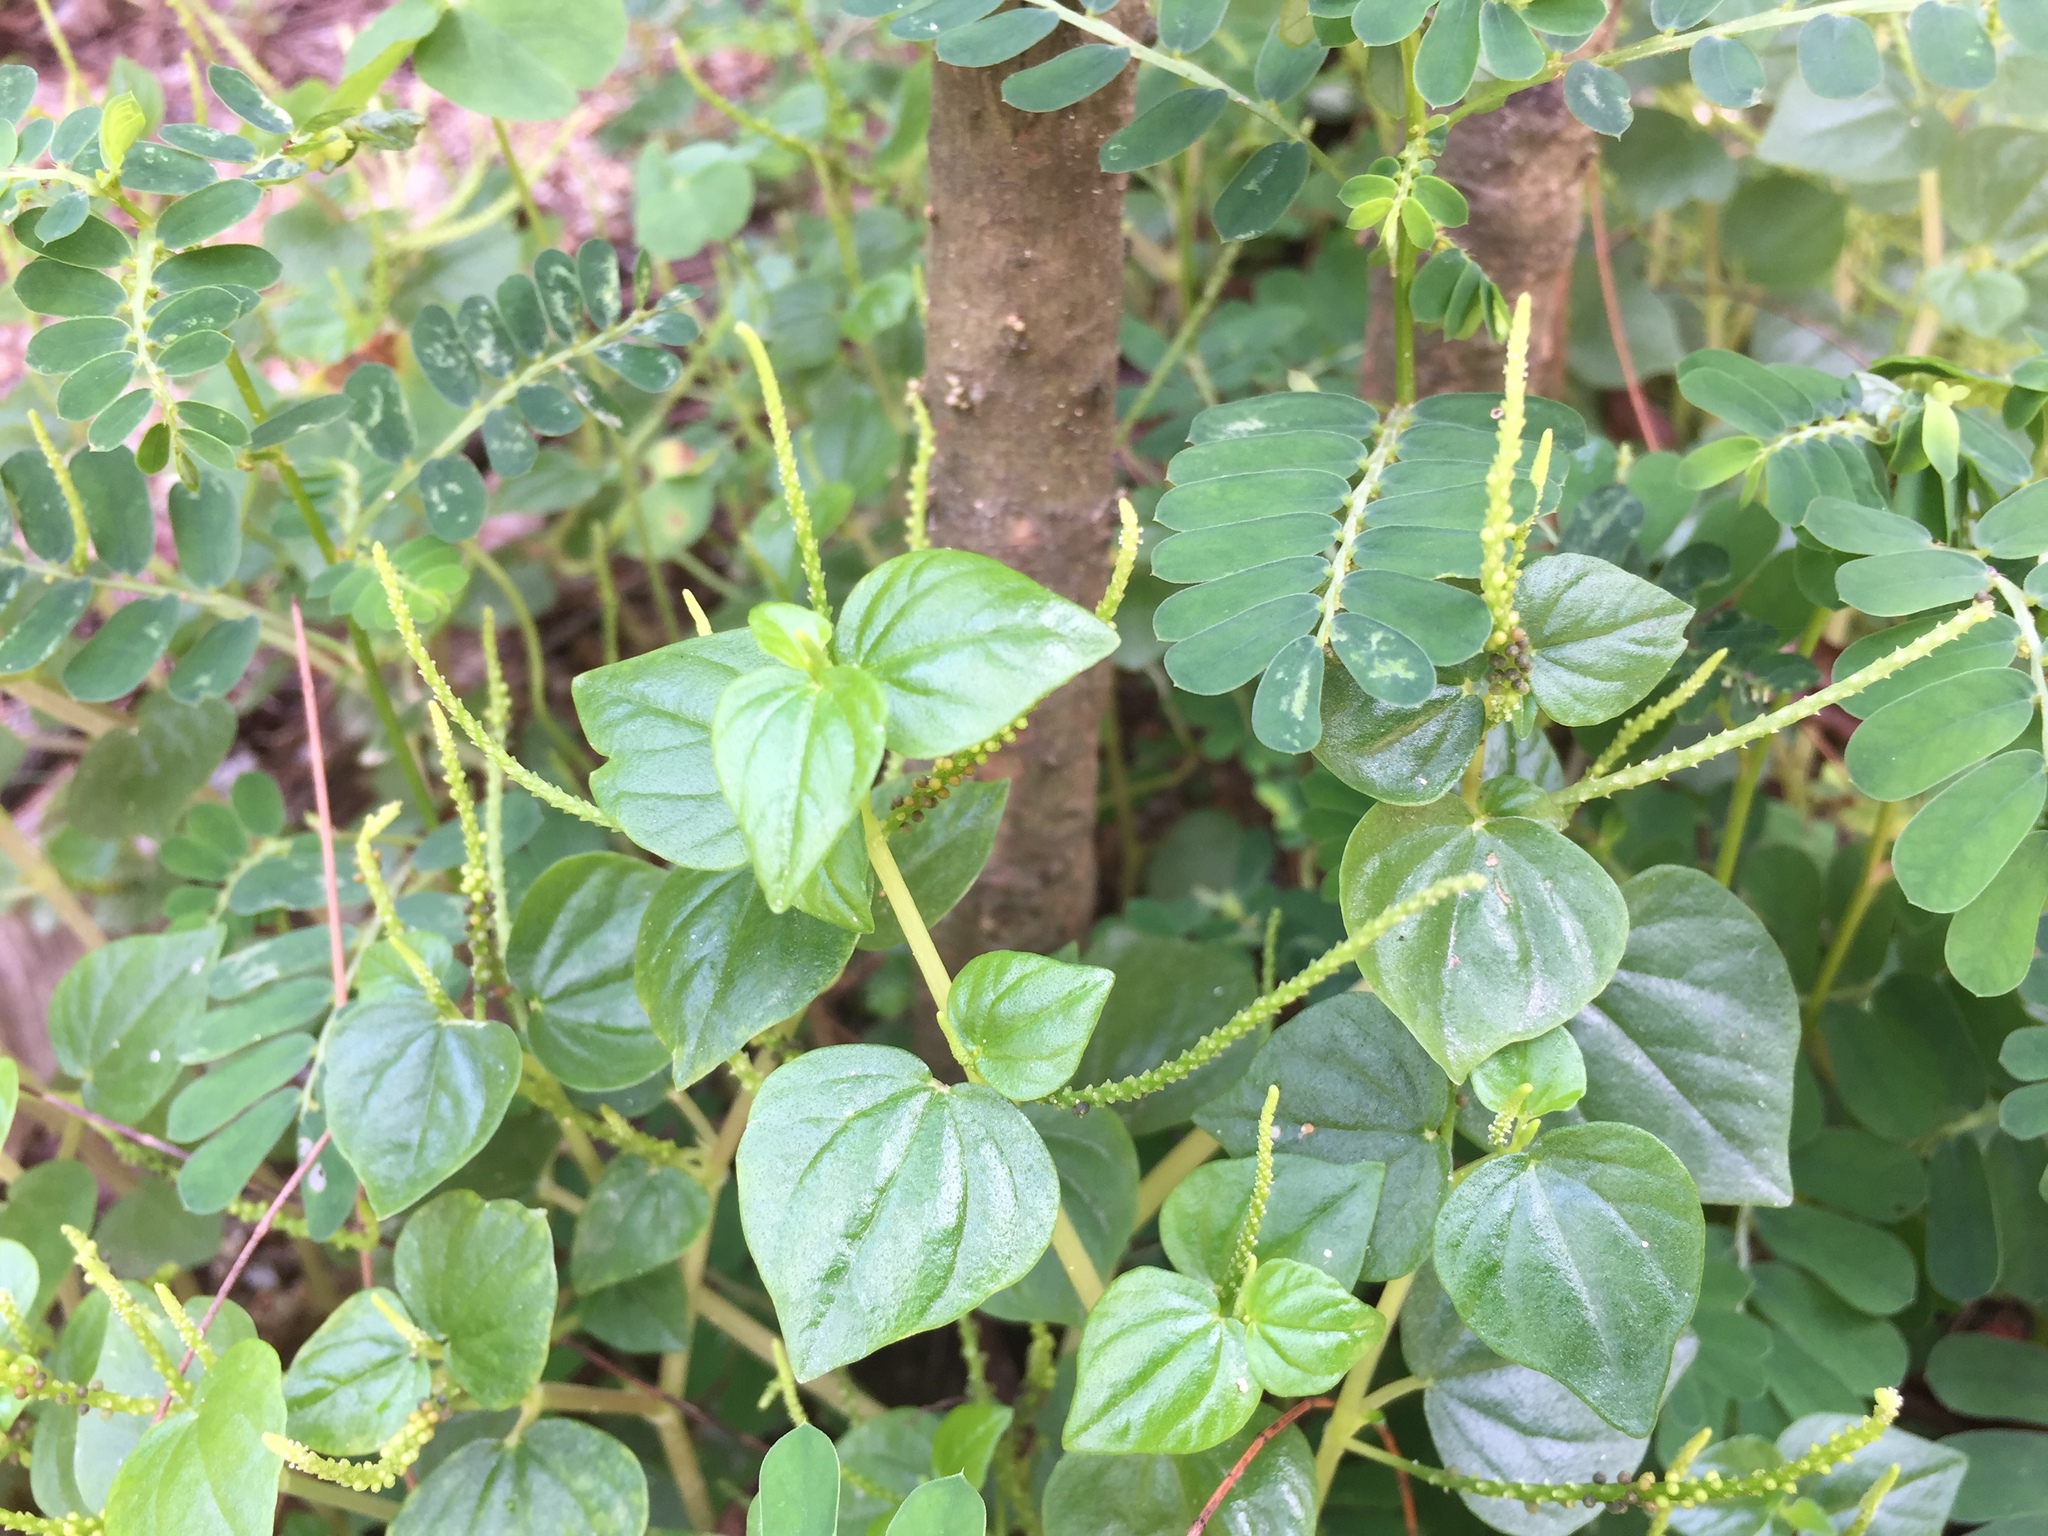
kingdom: Plantae
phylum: Tracheophyta
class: Magnoliopsida
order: Piperales
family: Piperaceae
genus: Peperomia
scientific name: Peperomia pellucida
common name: Man to man
